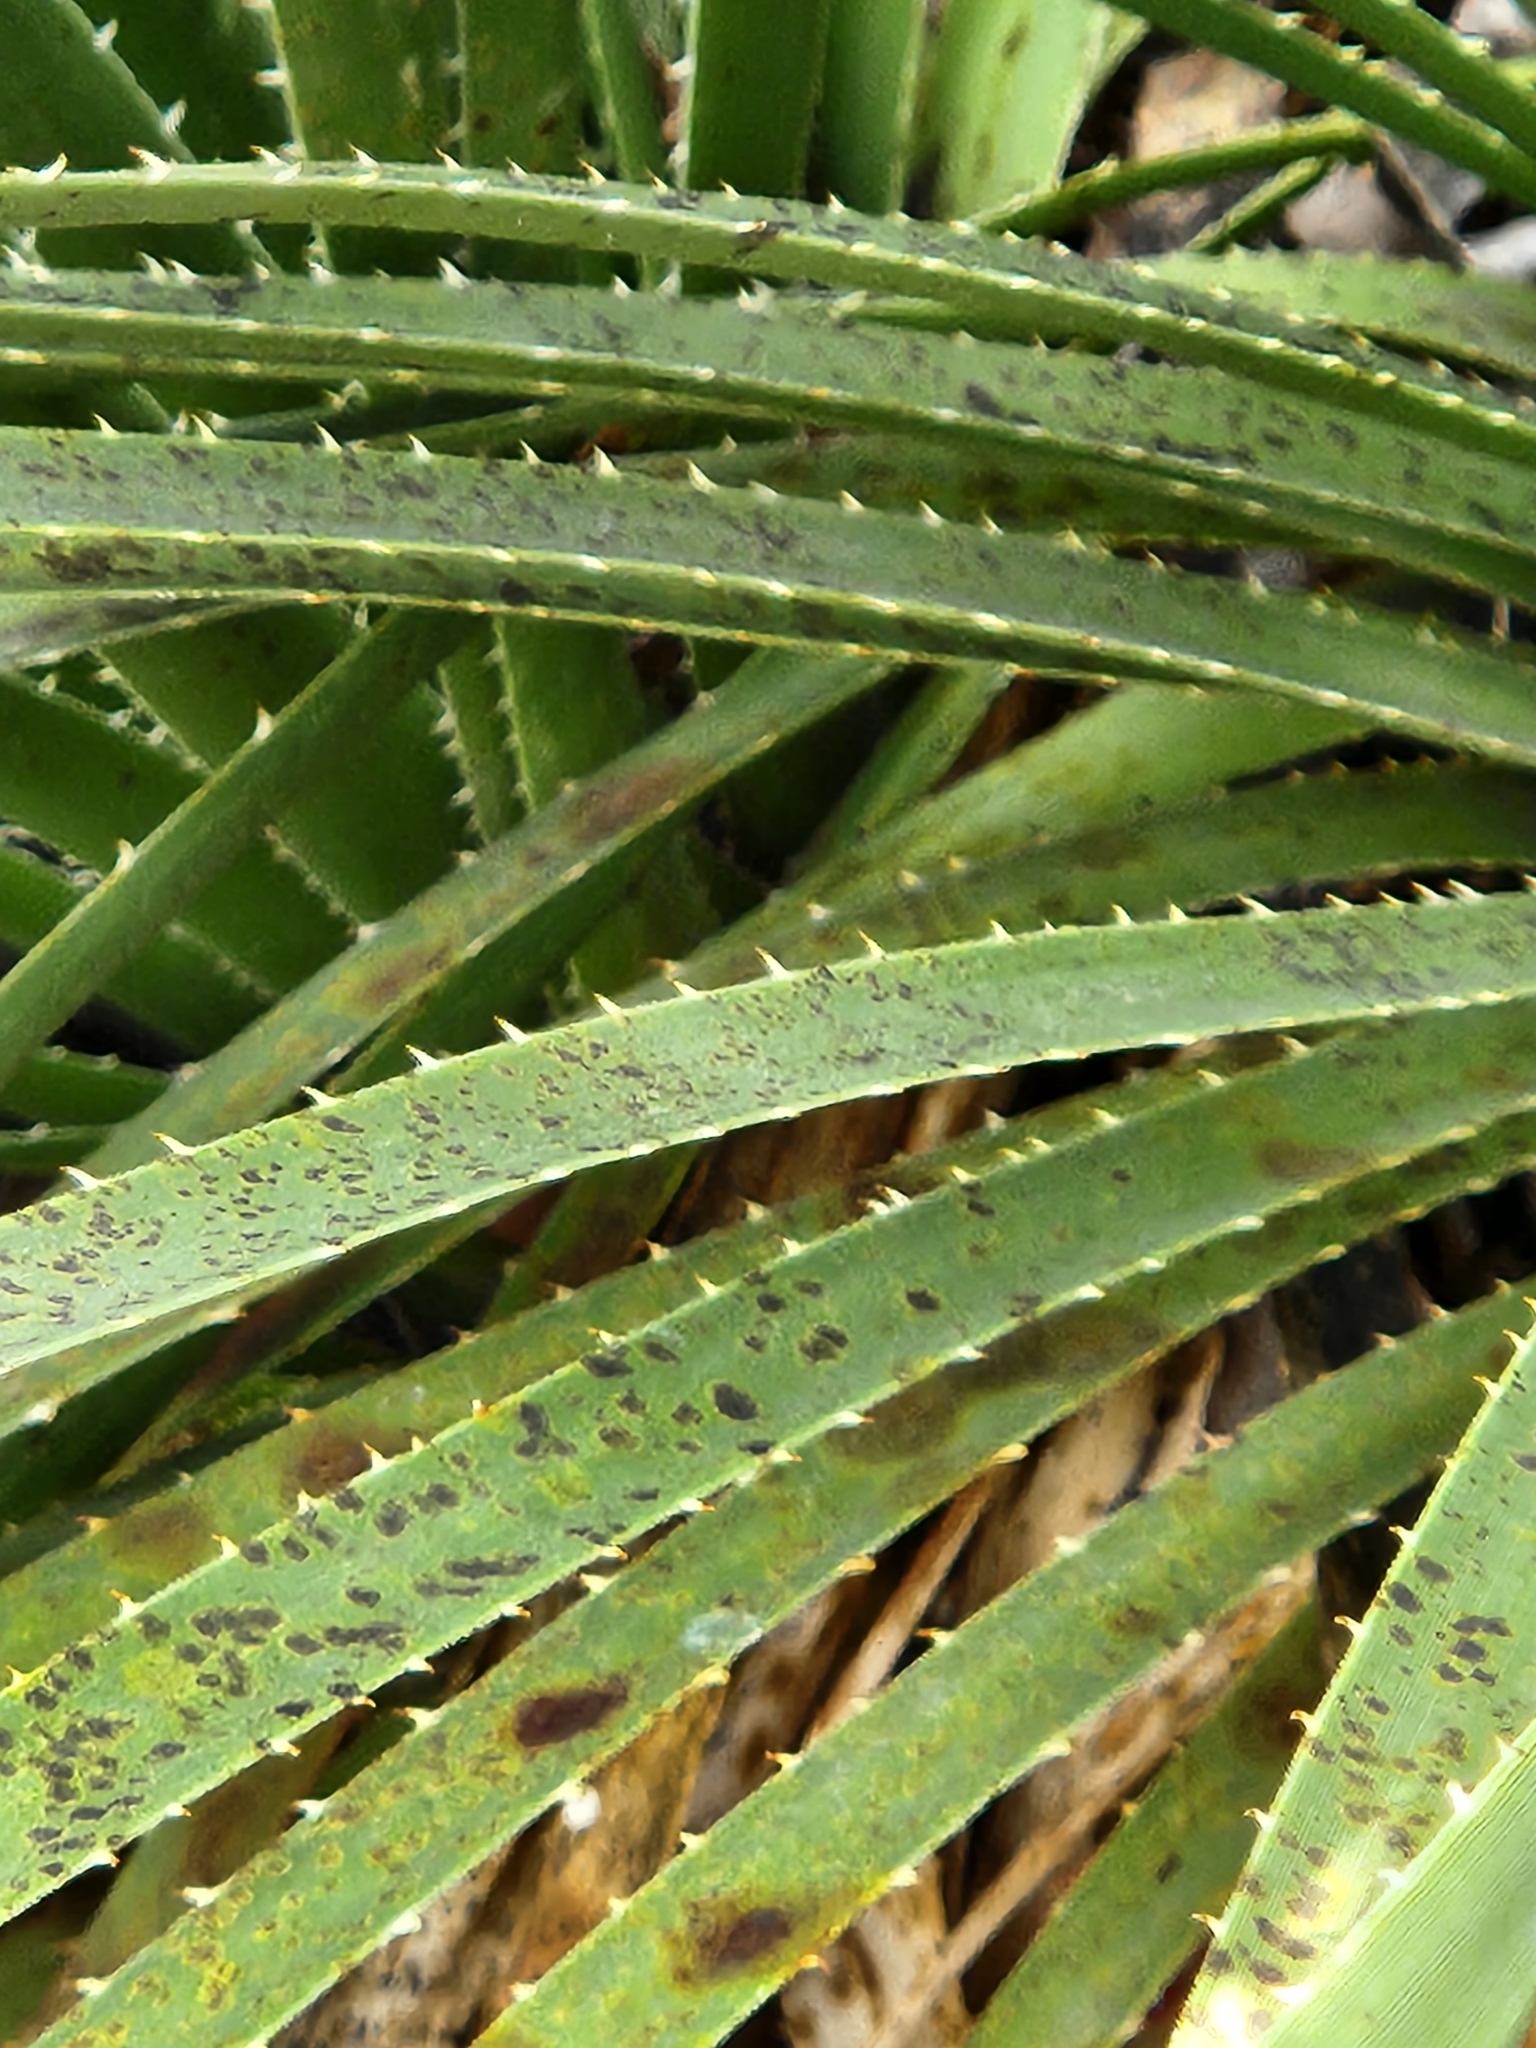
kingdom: Plantae
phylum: Tracheophyta
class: Liliopsida
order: Asparagales
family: Asparagaceae
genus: Dasylirion
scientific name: Dasylirion texanum
